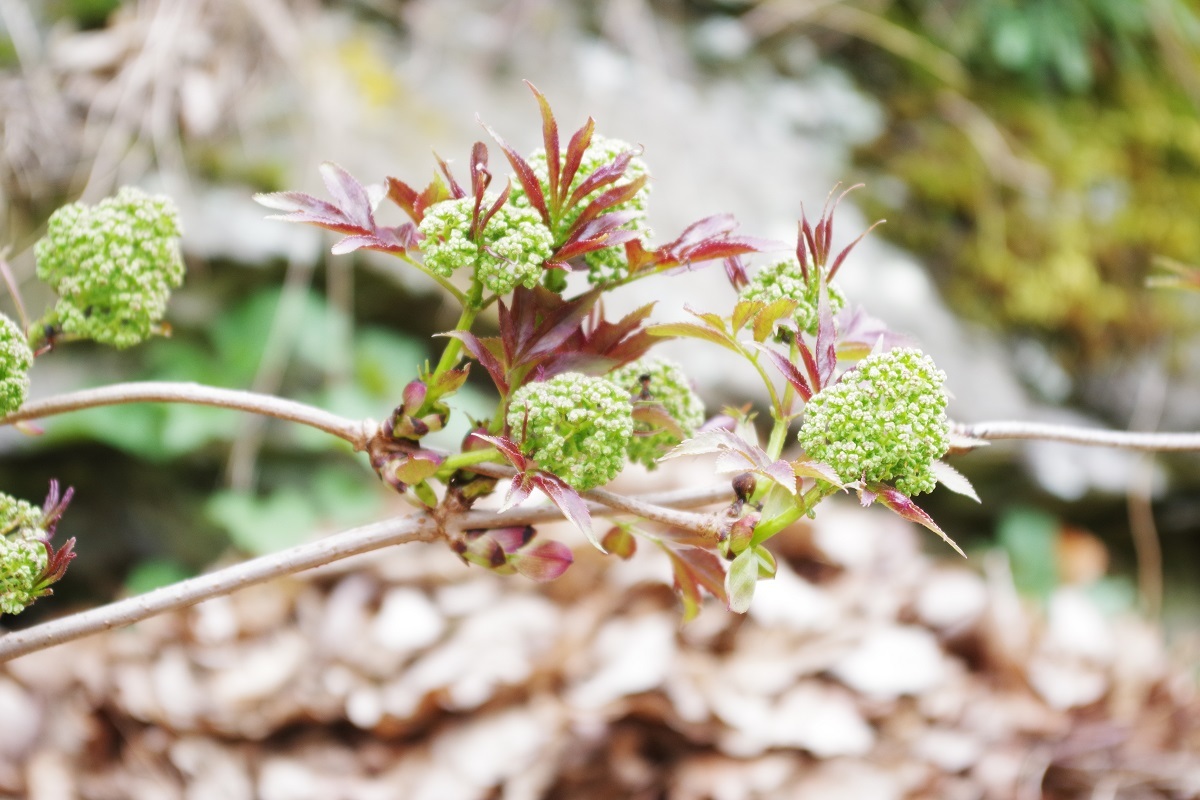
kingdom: Plantae
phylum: Tracheophyta
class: Magnoliopsida
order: Dipsacales
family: Viburnaceae
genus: Sambucus
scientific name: Sambucus racemosa
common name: Red-berried elder
